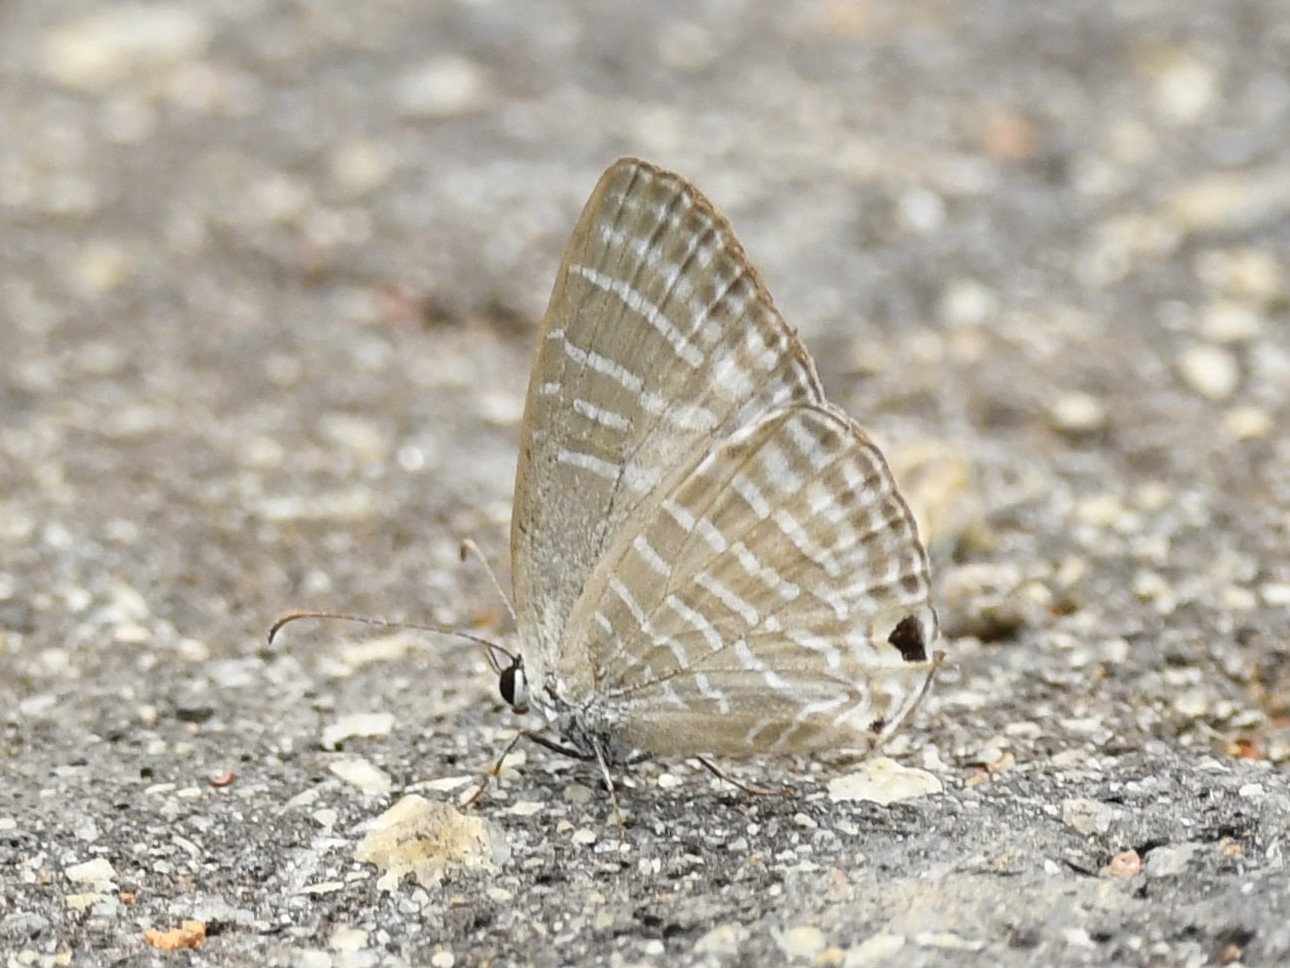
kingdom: Animalia
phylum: Arthropoda
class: Insecta
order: Lepidoptera
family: Lycaenidae
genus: Jamides
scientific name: Jamides celeno
